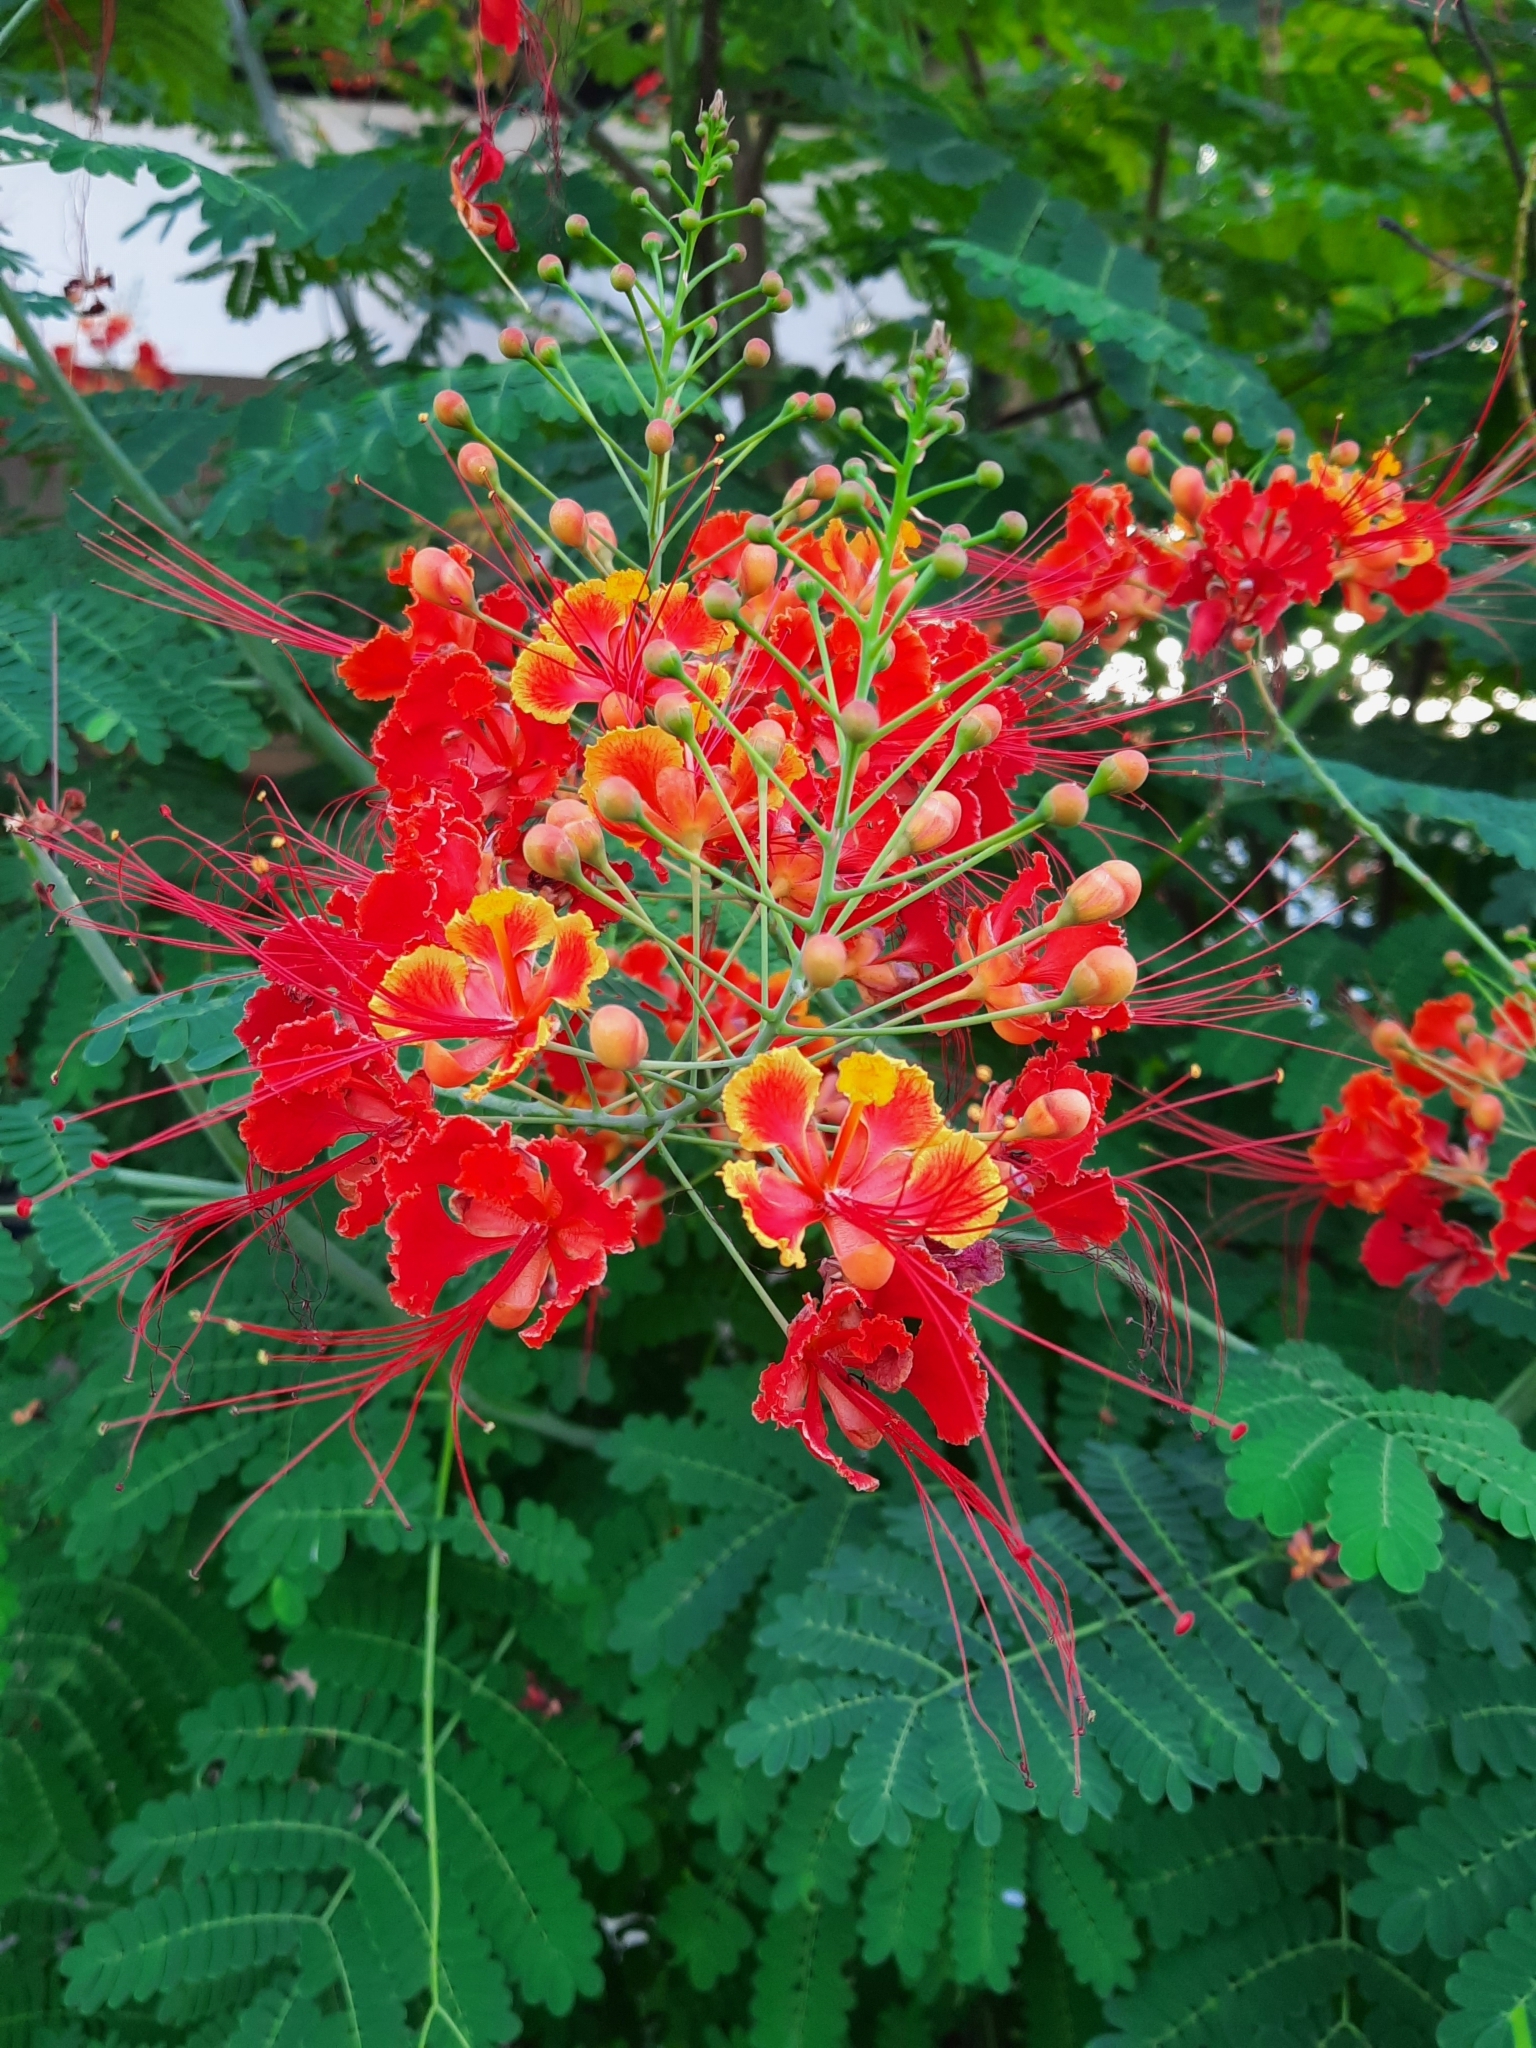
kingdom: Plantae
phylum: Tracheophyta
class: Magnoliopsida
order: Fabales
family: Fabaceae
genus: Caesalpinia
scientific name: Caesalpinia pulcherrima
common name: Pride-of-barbados
